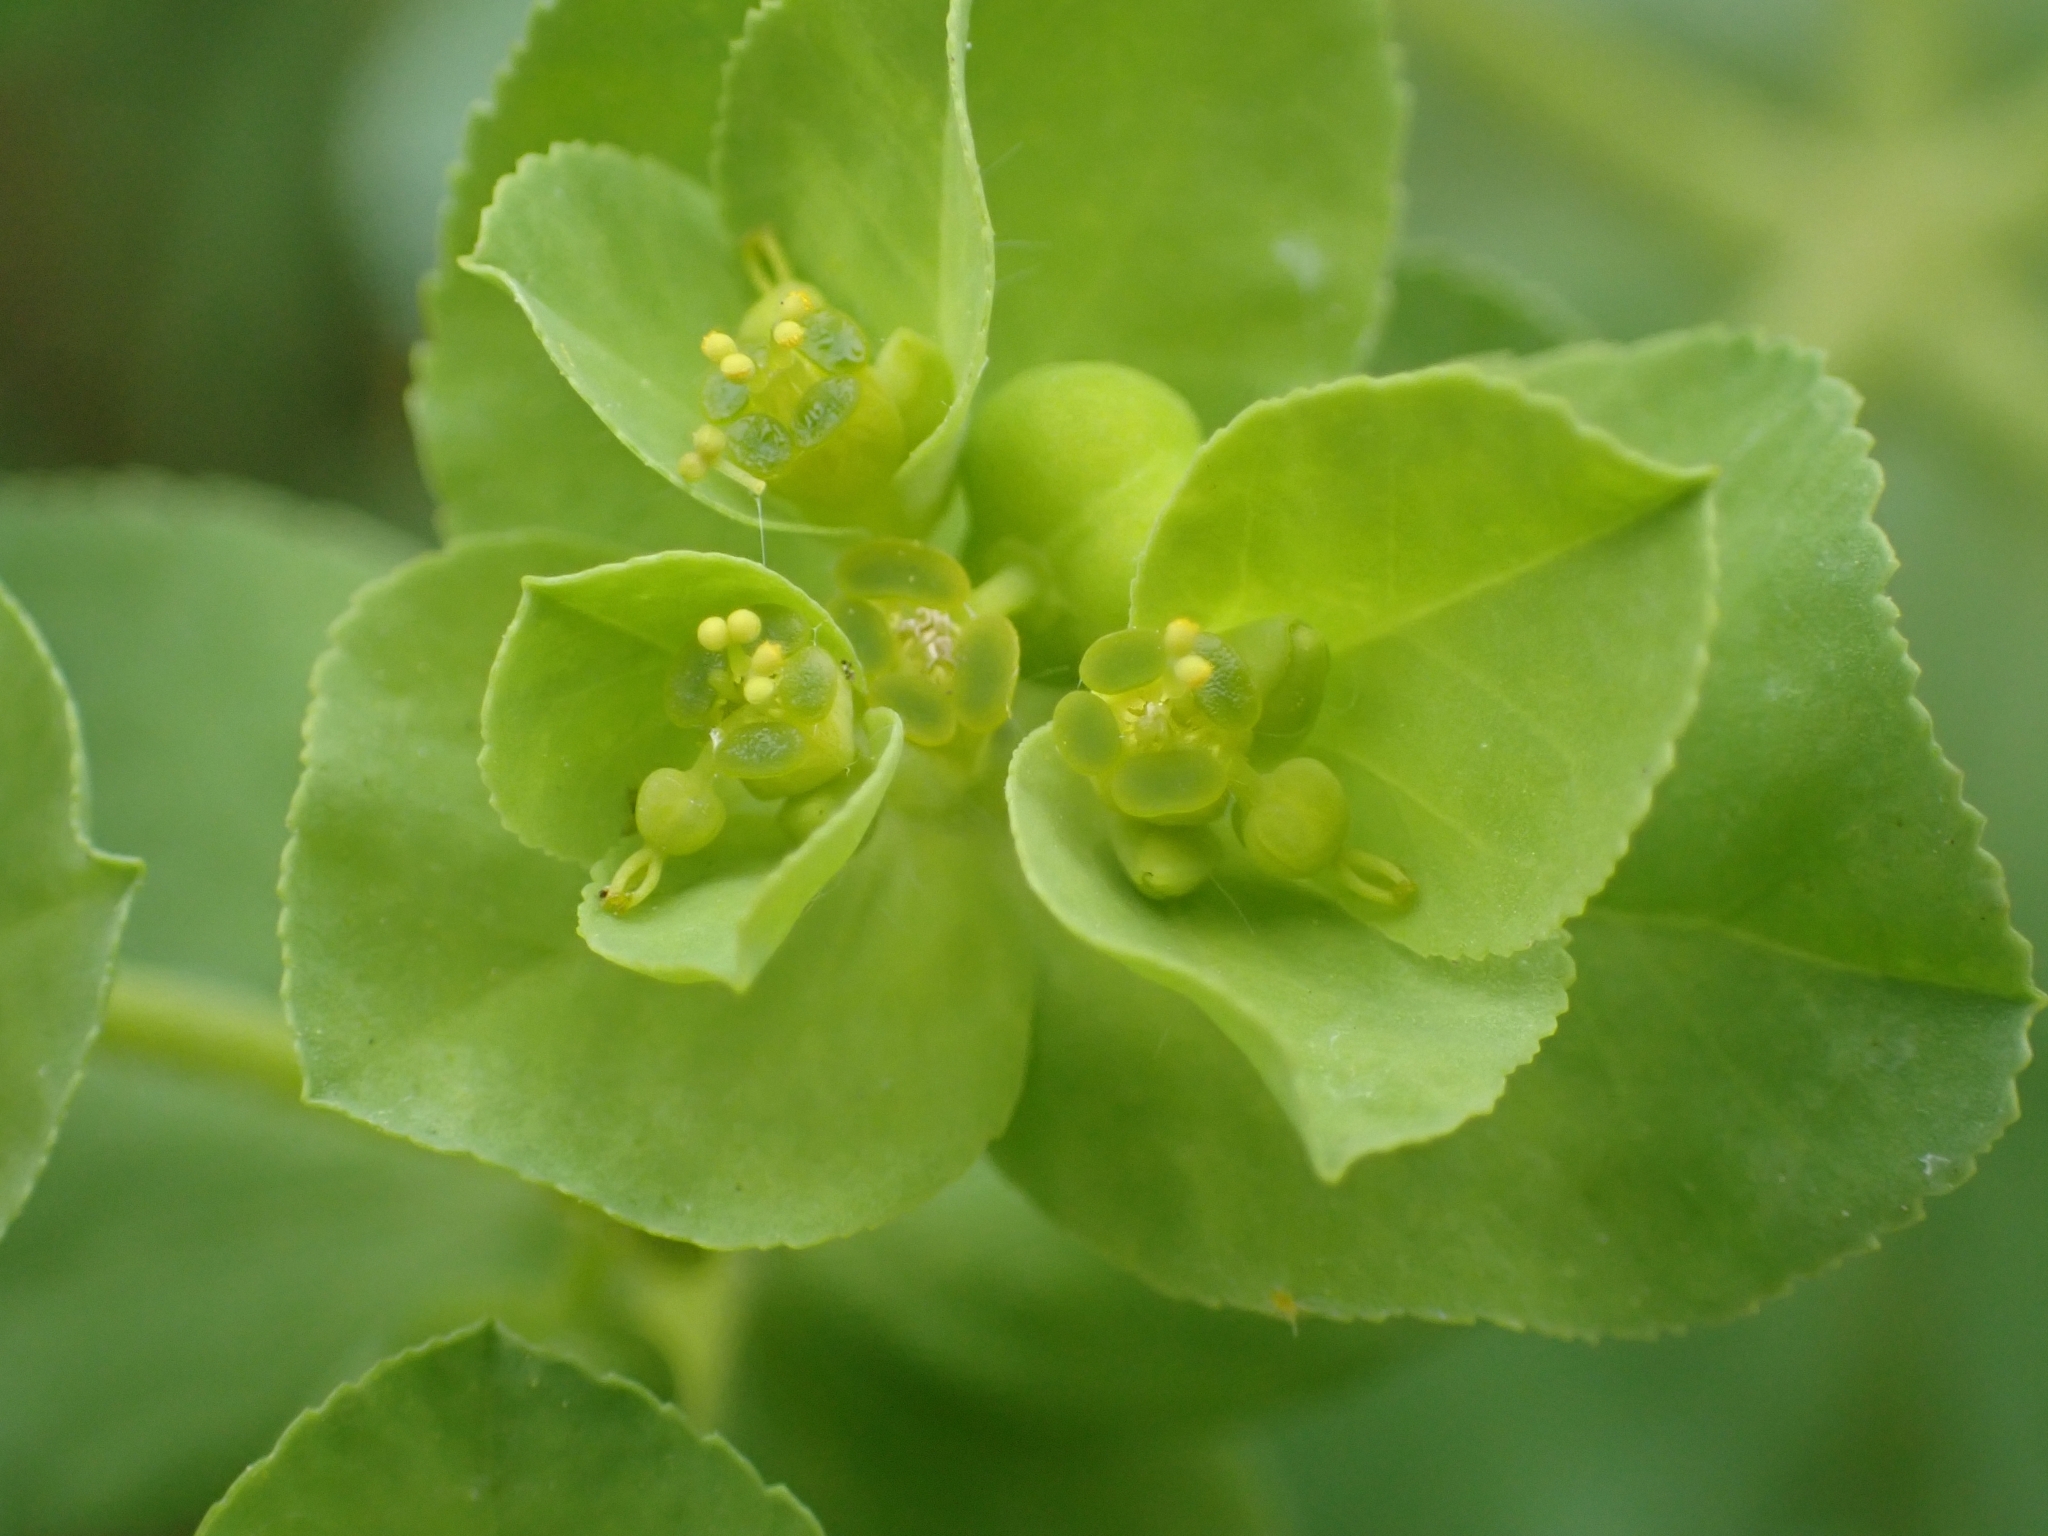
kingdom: Plantae
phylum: Tracheophyta
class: Magnoliopsida
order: Malpighiales
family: Euphorbiaceae
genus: Euphorbia
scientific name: Euphorbia helioscopia
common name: Sun spurge
